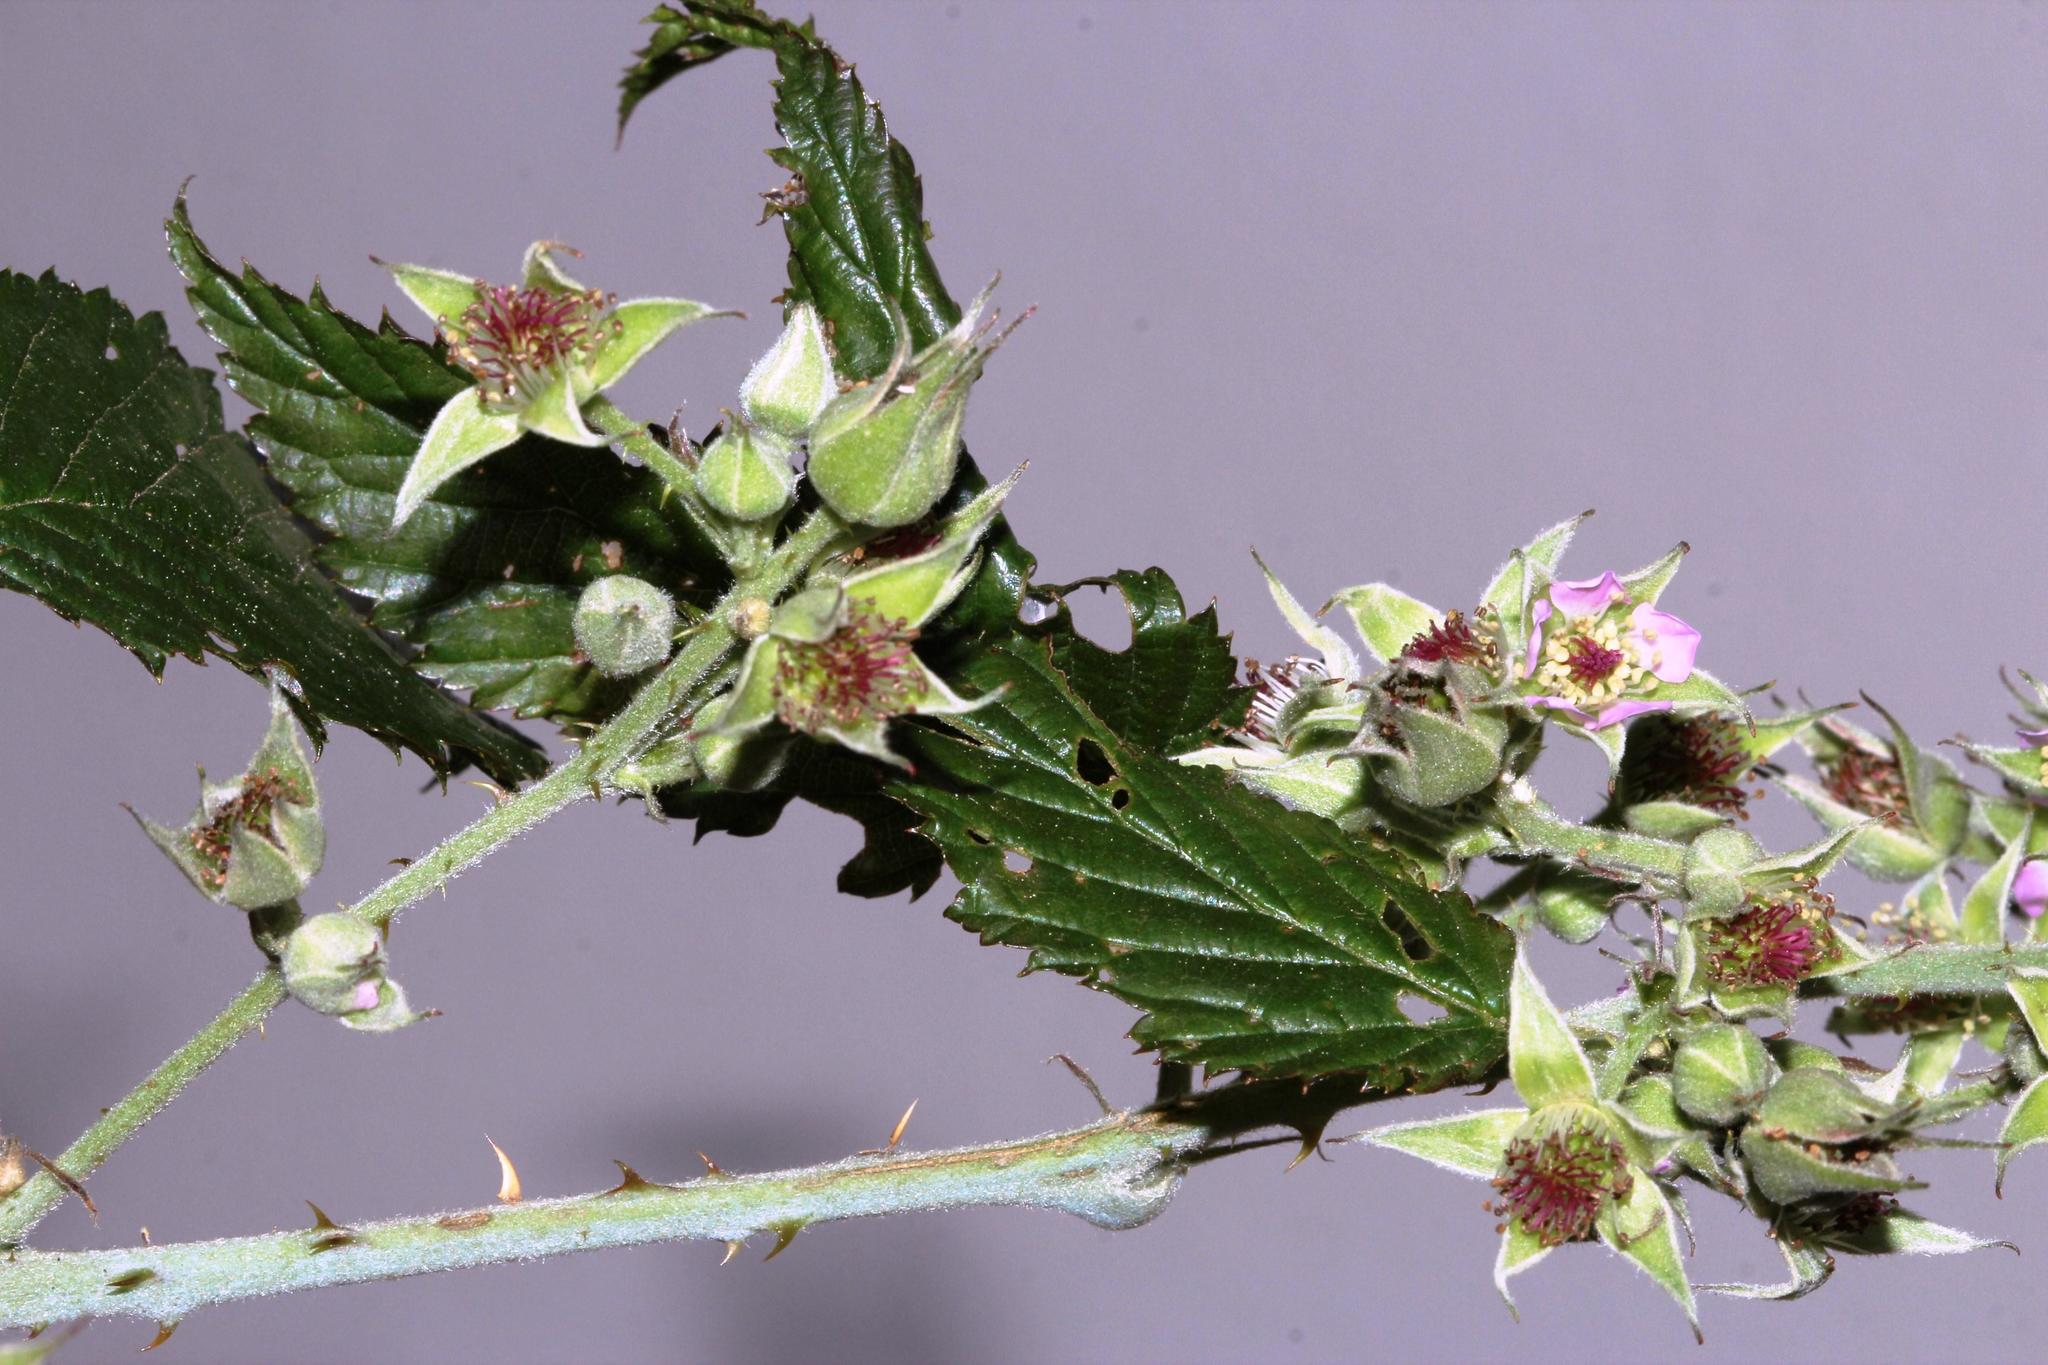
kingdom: Plantae
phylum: Tracheophyta
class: Magnoliopsida
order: Rosales
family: Rosaceae
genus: Rubus
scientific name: Rubus pinnatus
